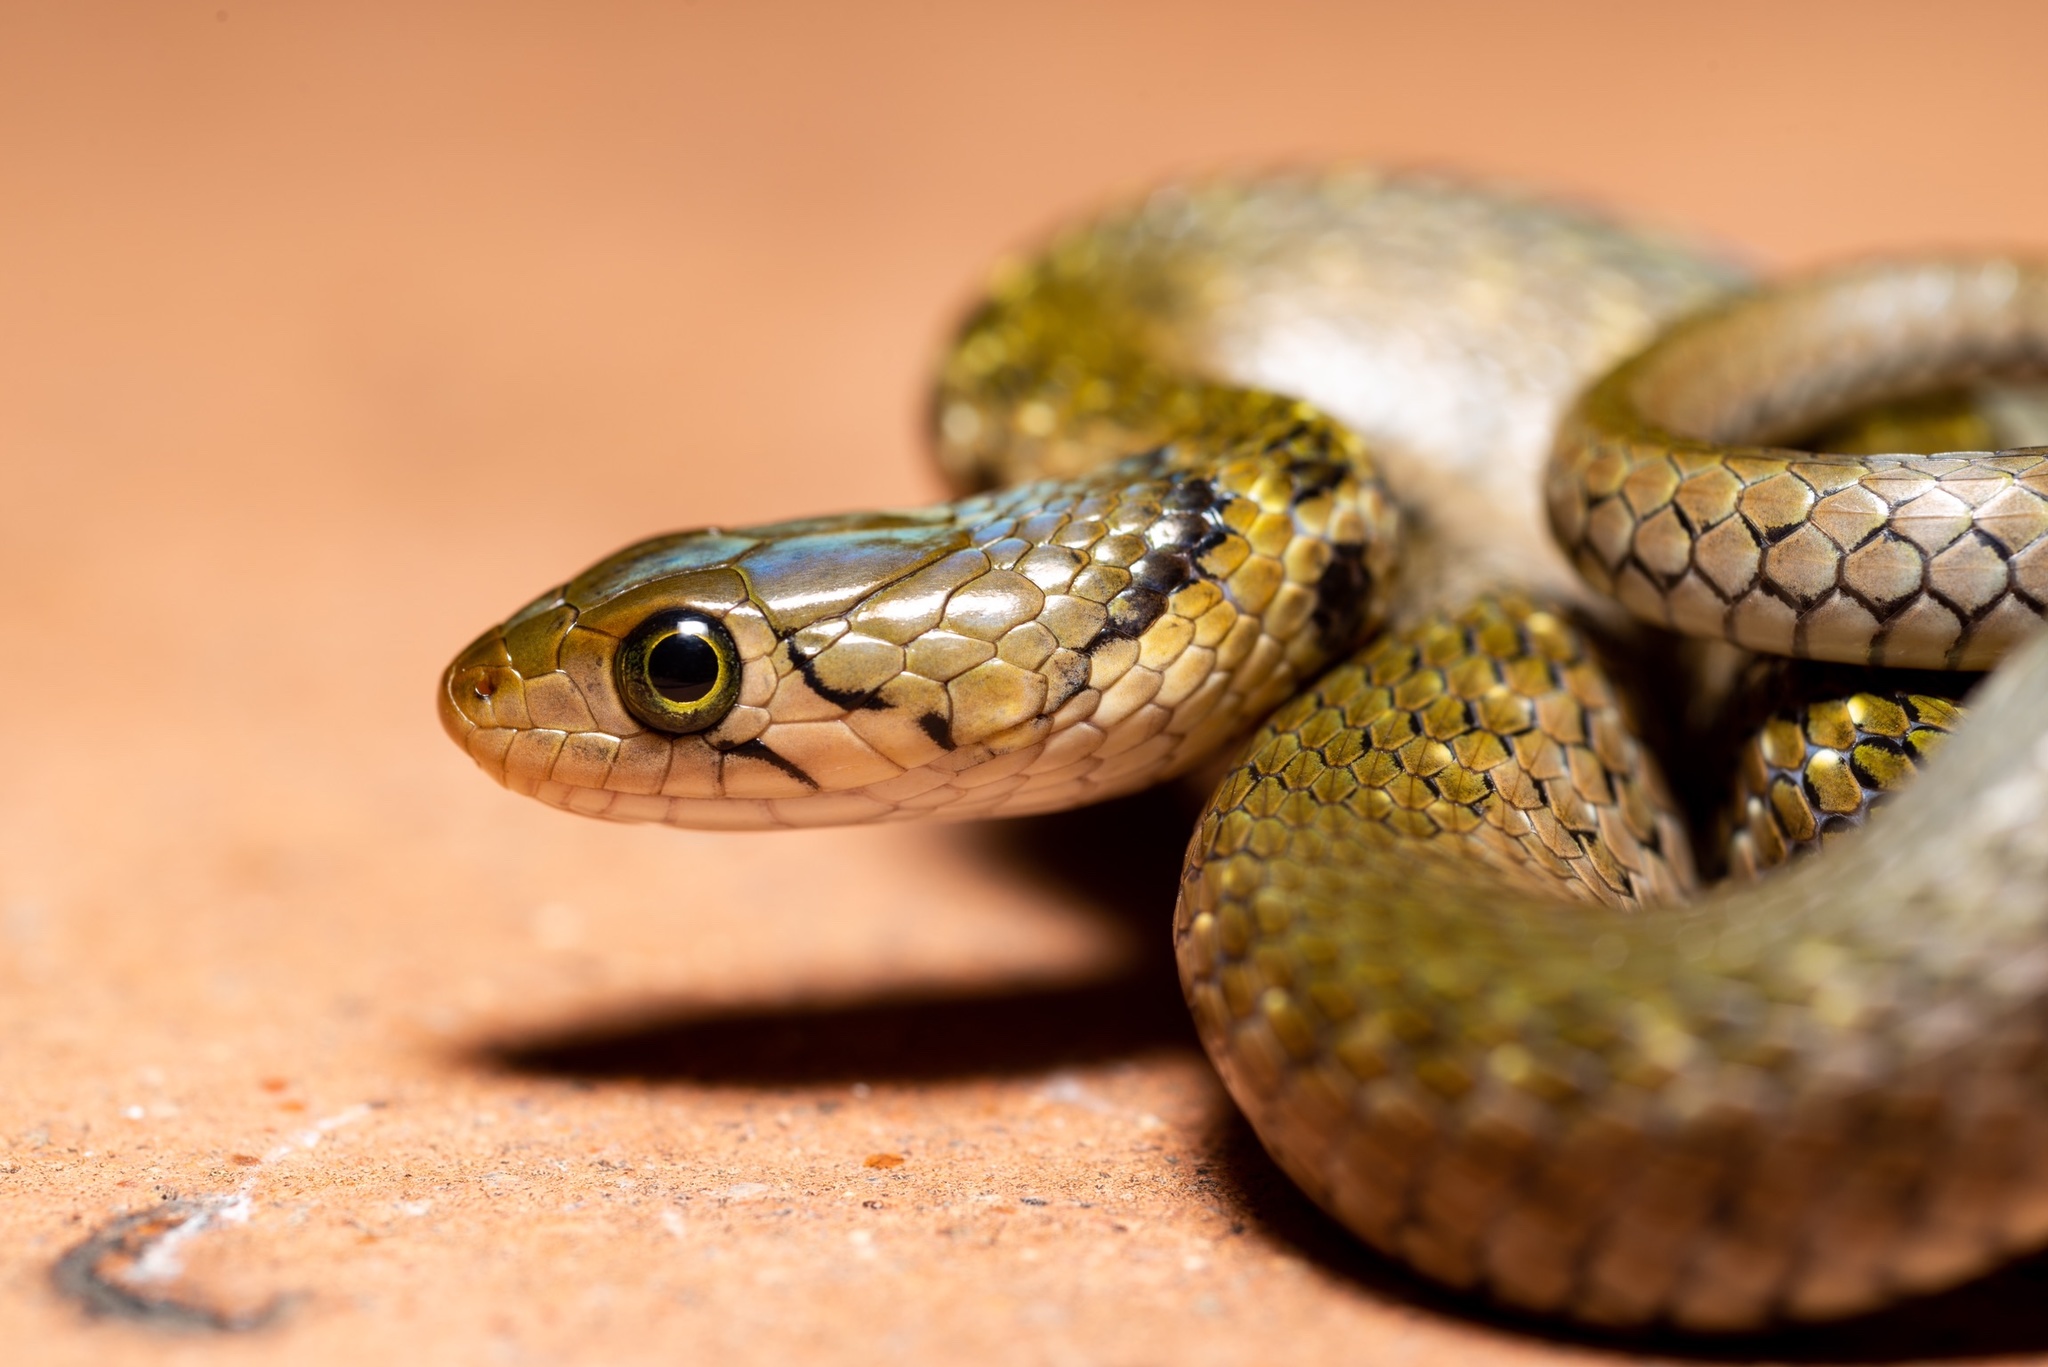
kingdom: Animalia
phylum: Chordata
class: Squamata
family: Colubridae
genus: Fowlea
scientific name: Fowlea flavipunctatus
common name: Yellow-spotted keelback
